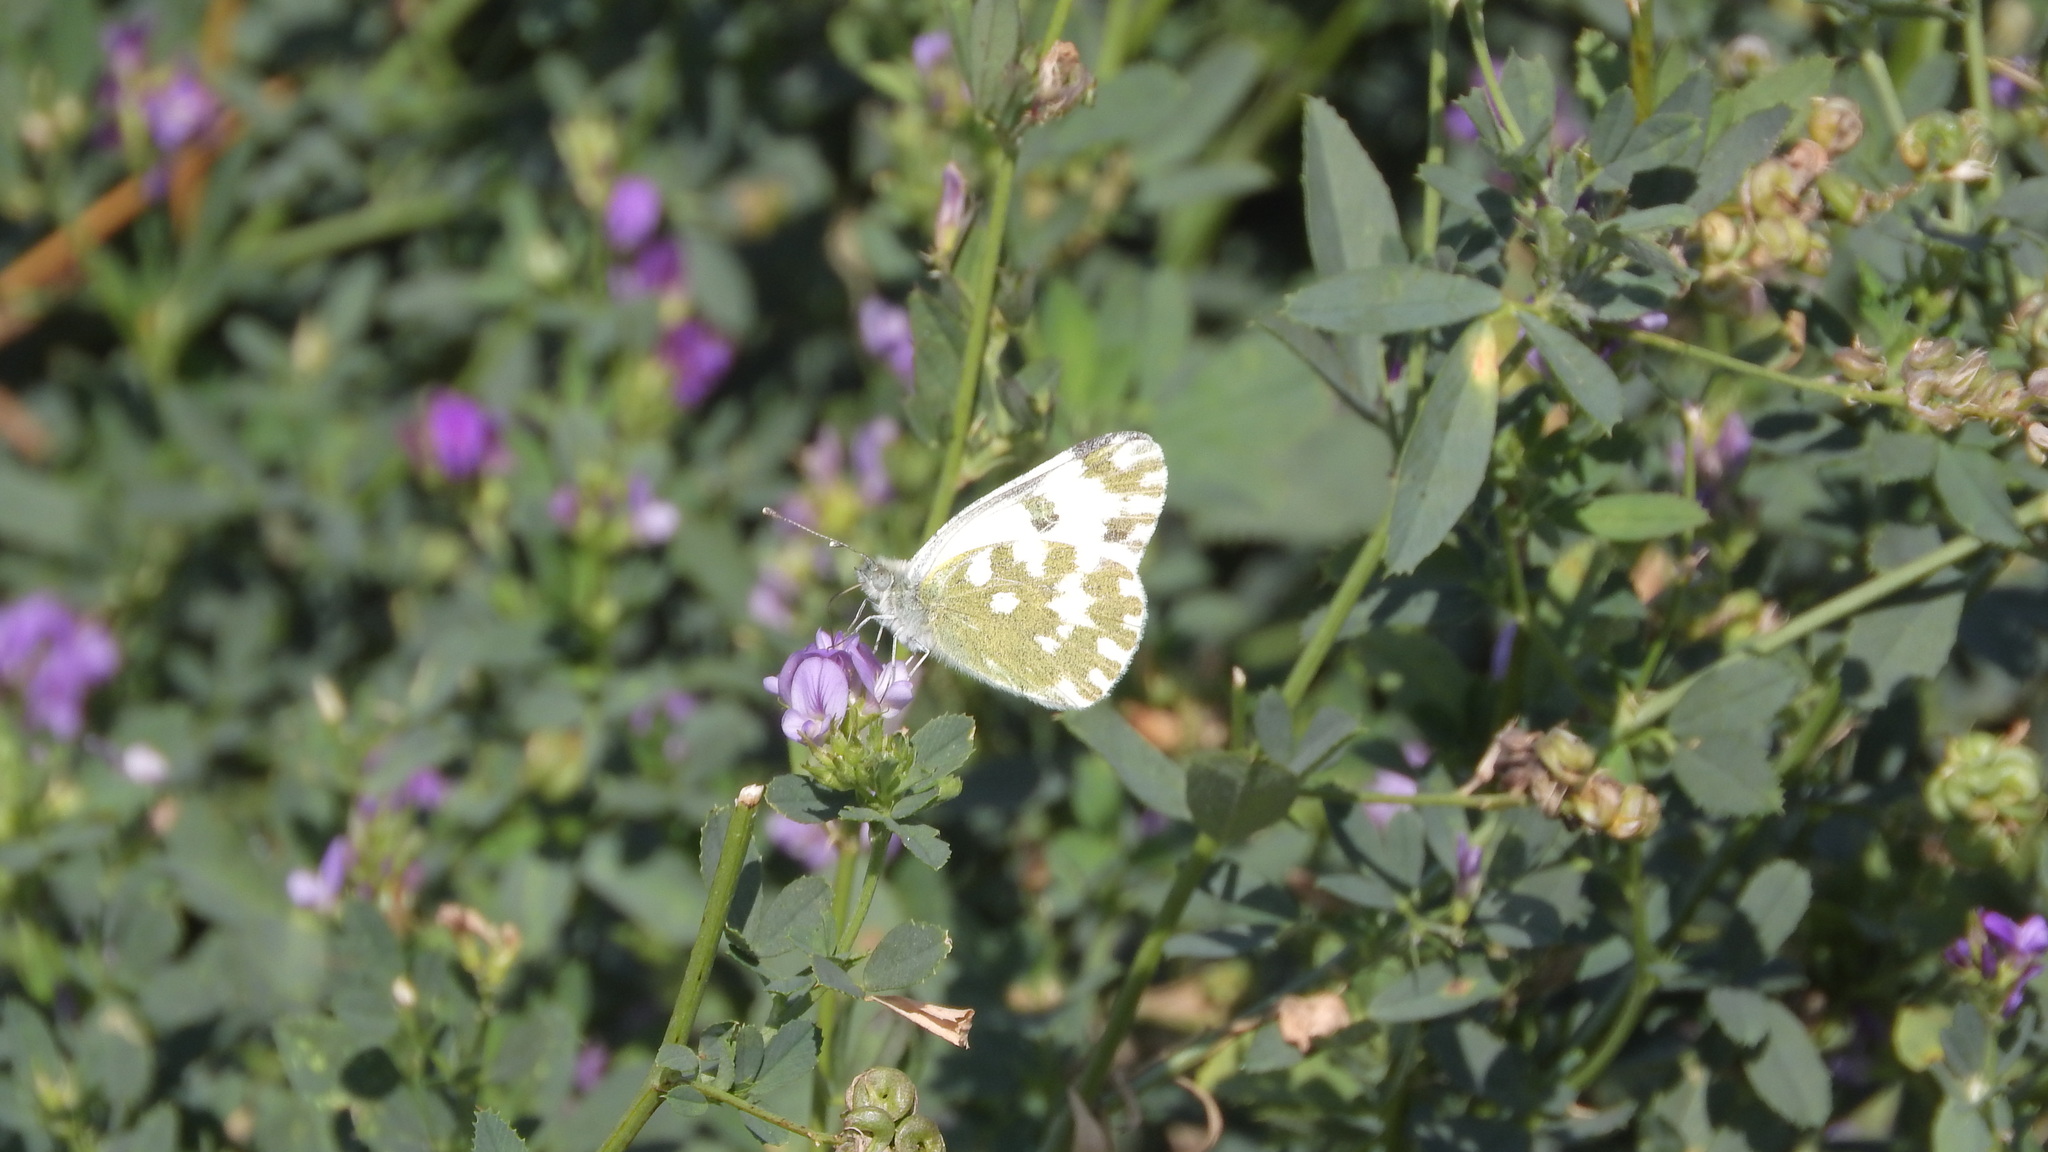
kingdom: Animalia
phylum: Arthropoda
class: Insecta
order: Lepidoptera
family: Pieridae
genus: Pontia
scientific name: Pontia edusa
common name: Eastern bath white
